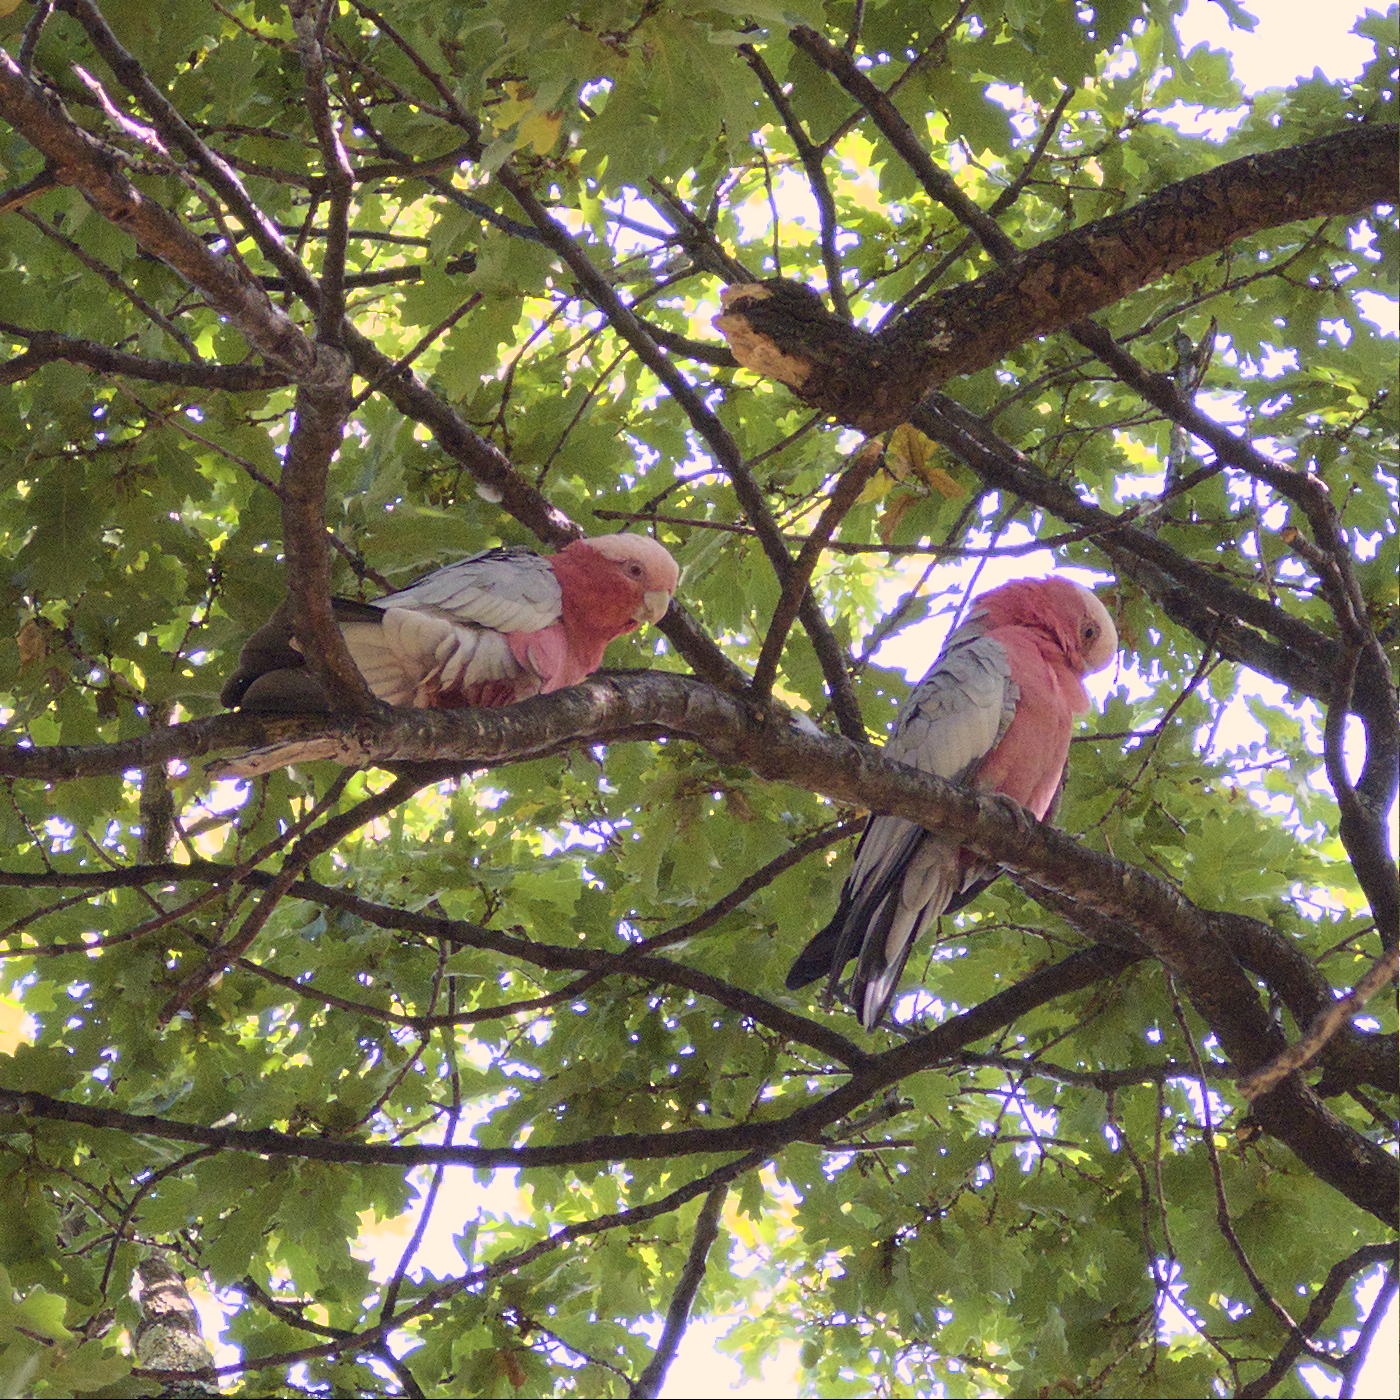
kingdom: Animalia
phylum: Chordata
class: Aves
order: Psittaciformes
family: Psittacidae
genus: Eolophus
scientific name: Eolophus roseicapilla
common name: Galah
